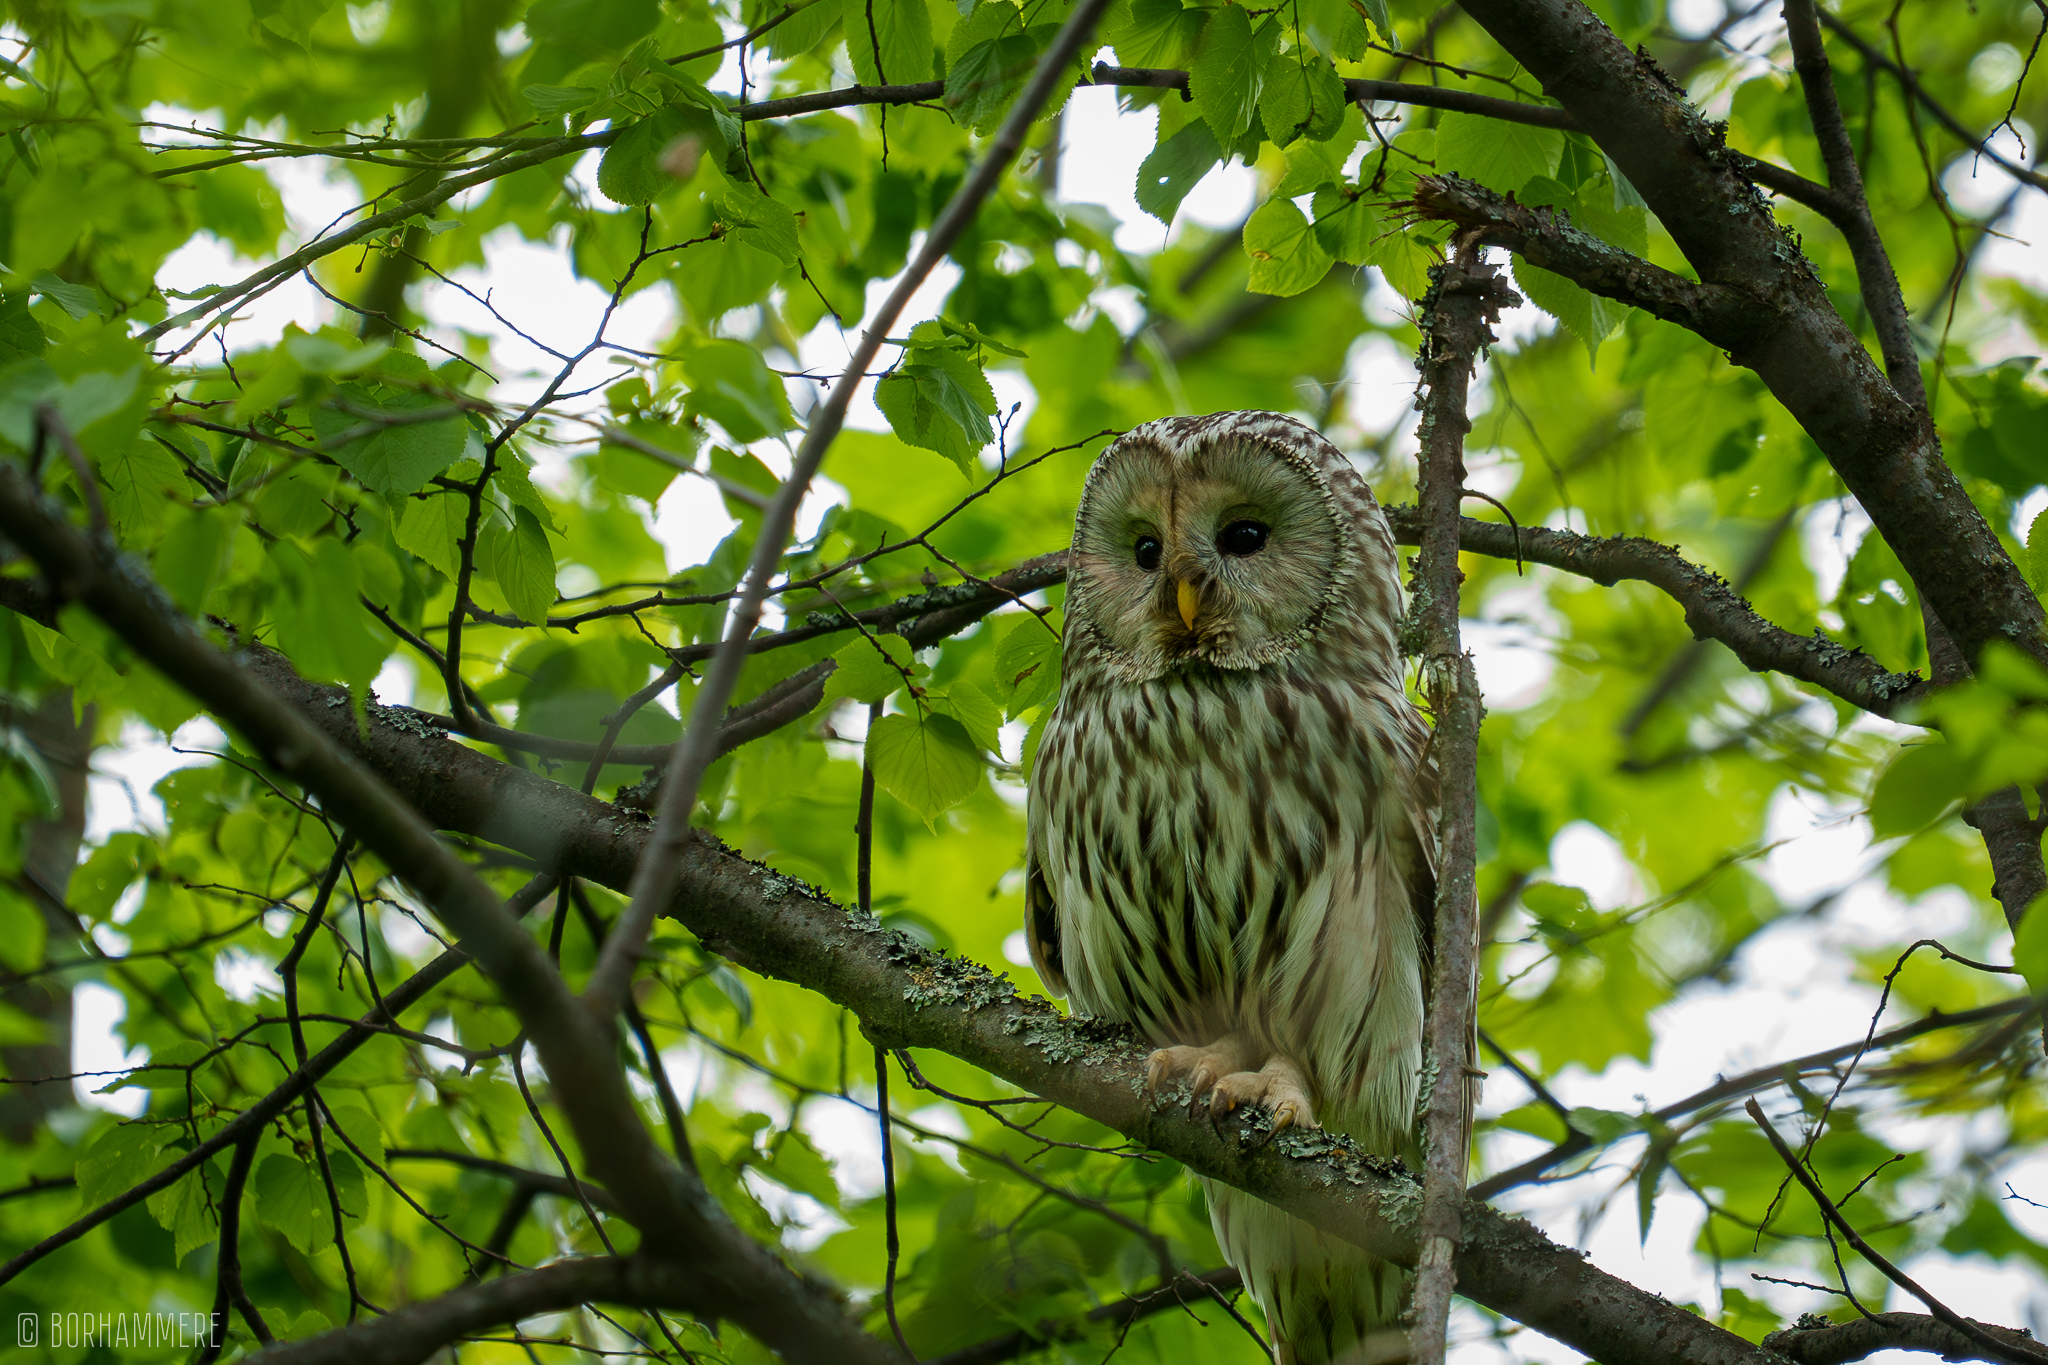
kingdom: Animalia
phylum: Chordata
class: Aves
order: Strigiformes
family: Strigidae
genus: Strix
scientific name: Strix uralensis
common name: Ural owl
